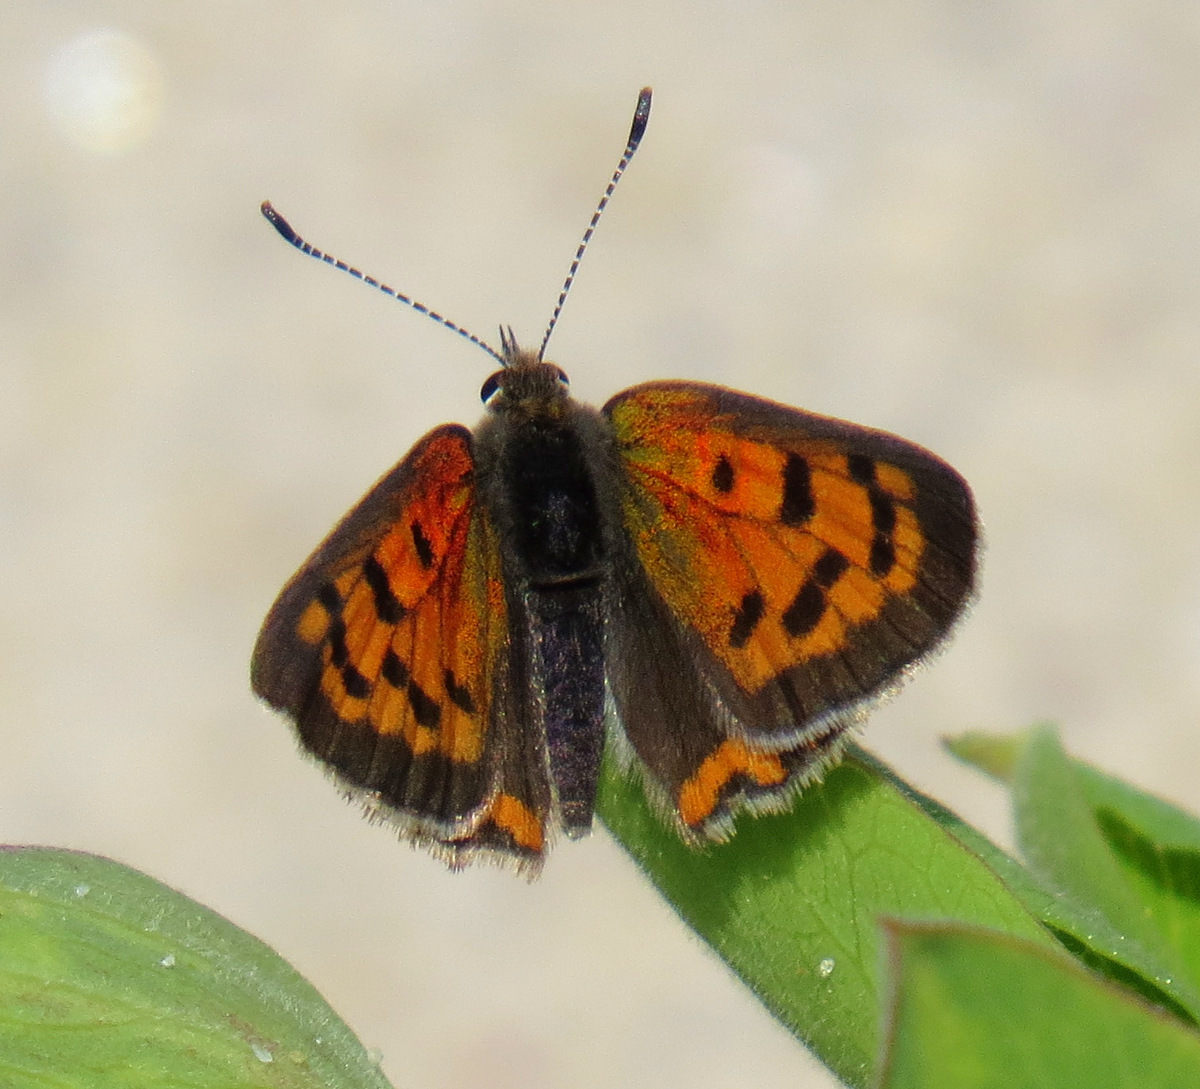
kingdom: Animalia
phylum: Arthropoda
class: Insecta
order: Lepidoptera
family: Lycaenidae
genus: Lycaena
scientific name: Lycaena hypophlaeas
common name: American copper
